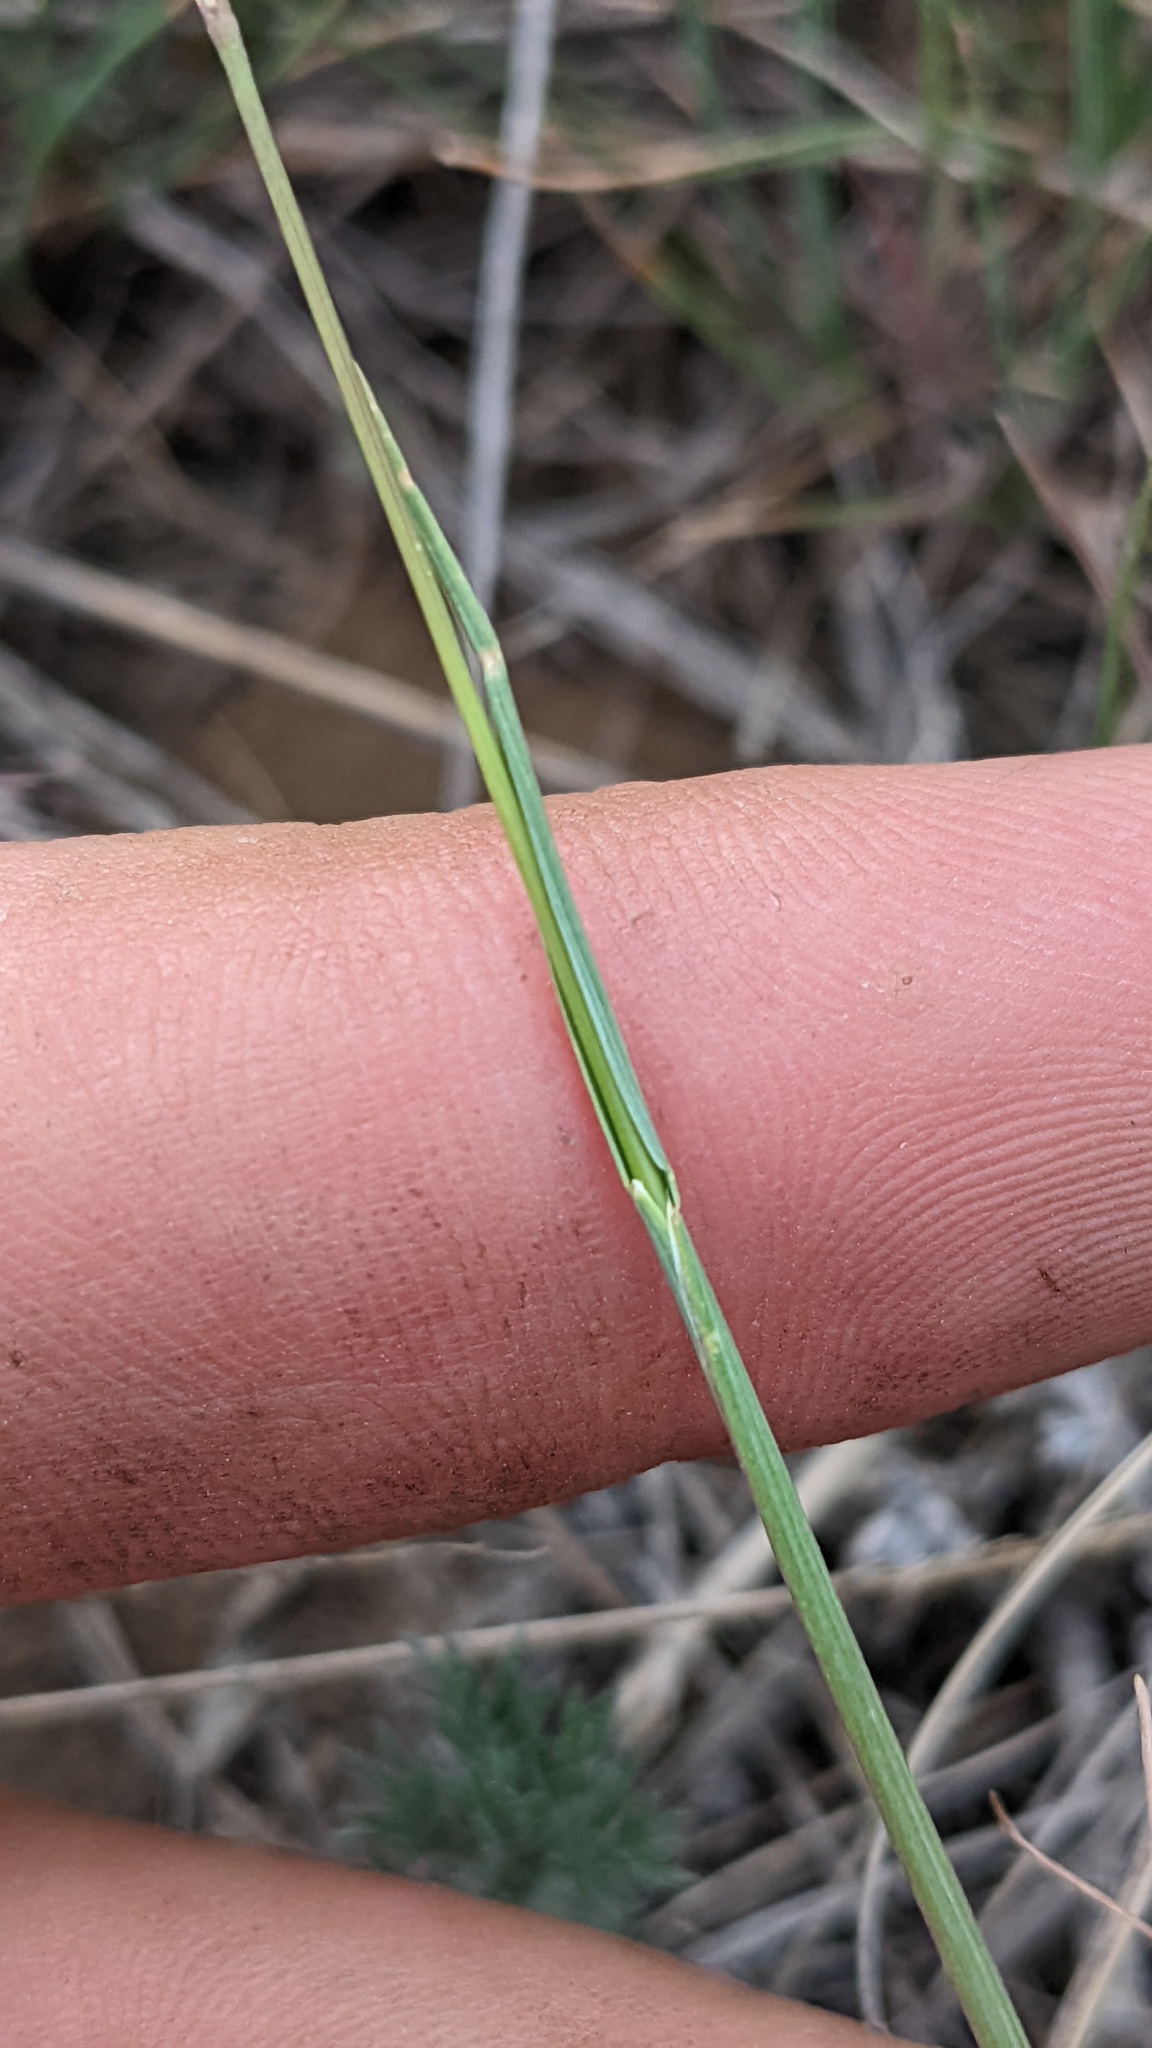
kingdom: Plantae
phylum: Tracheophyta
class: Liliopsida
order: Poales
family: Poaceae
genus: Koeleria
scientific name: Koeleria macrantha
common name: Crested hair-grass
